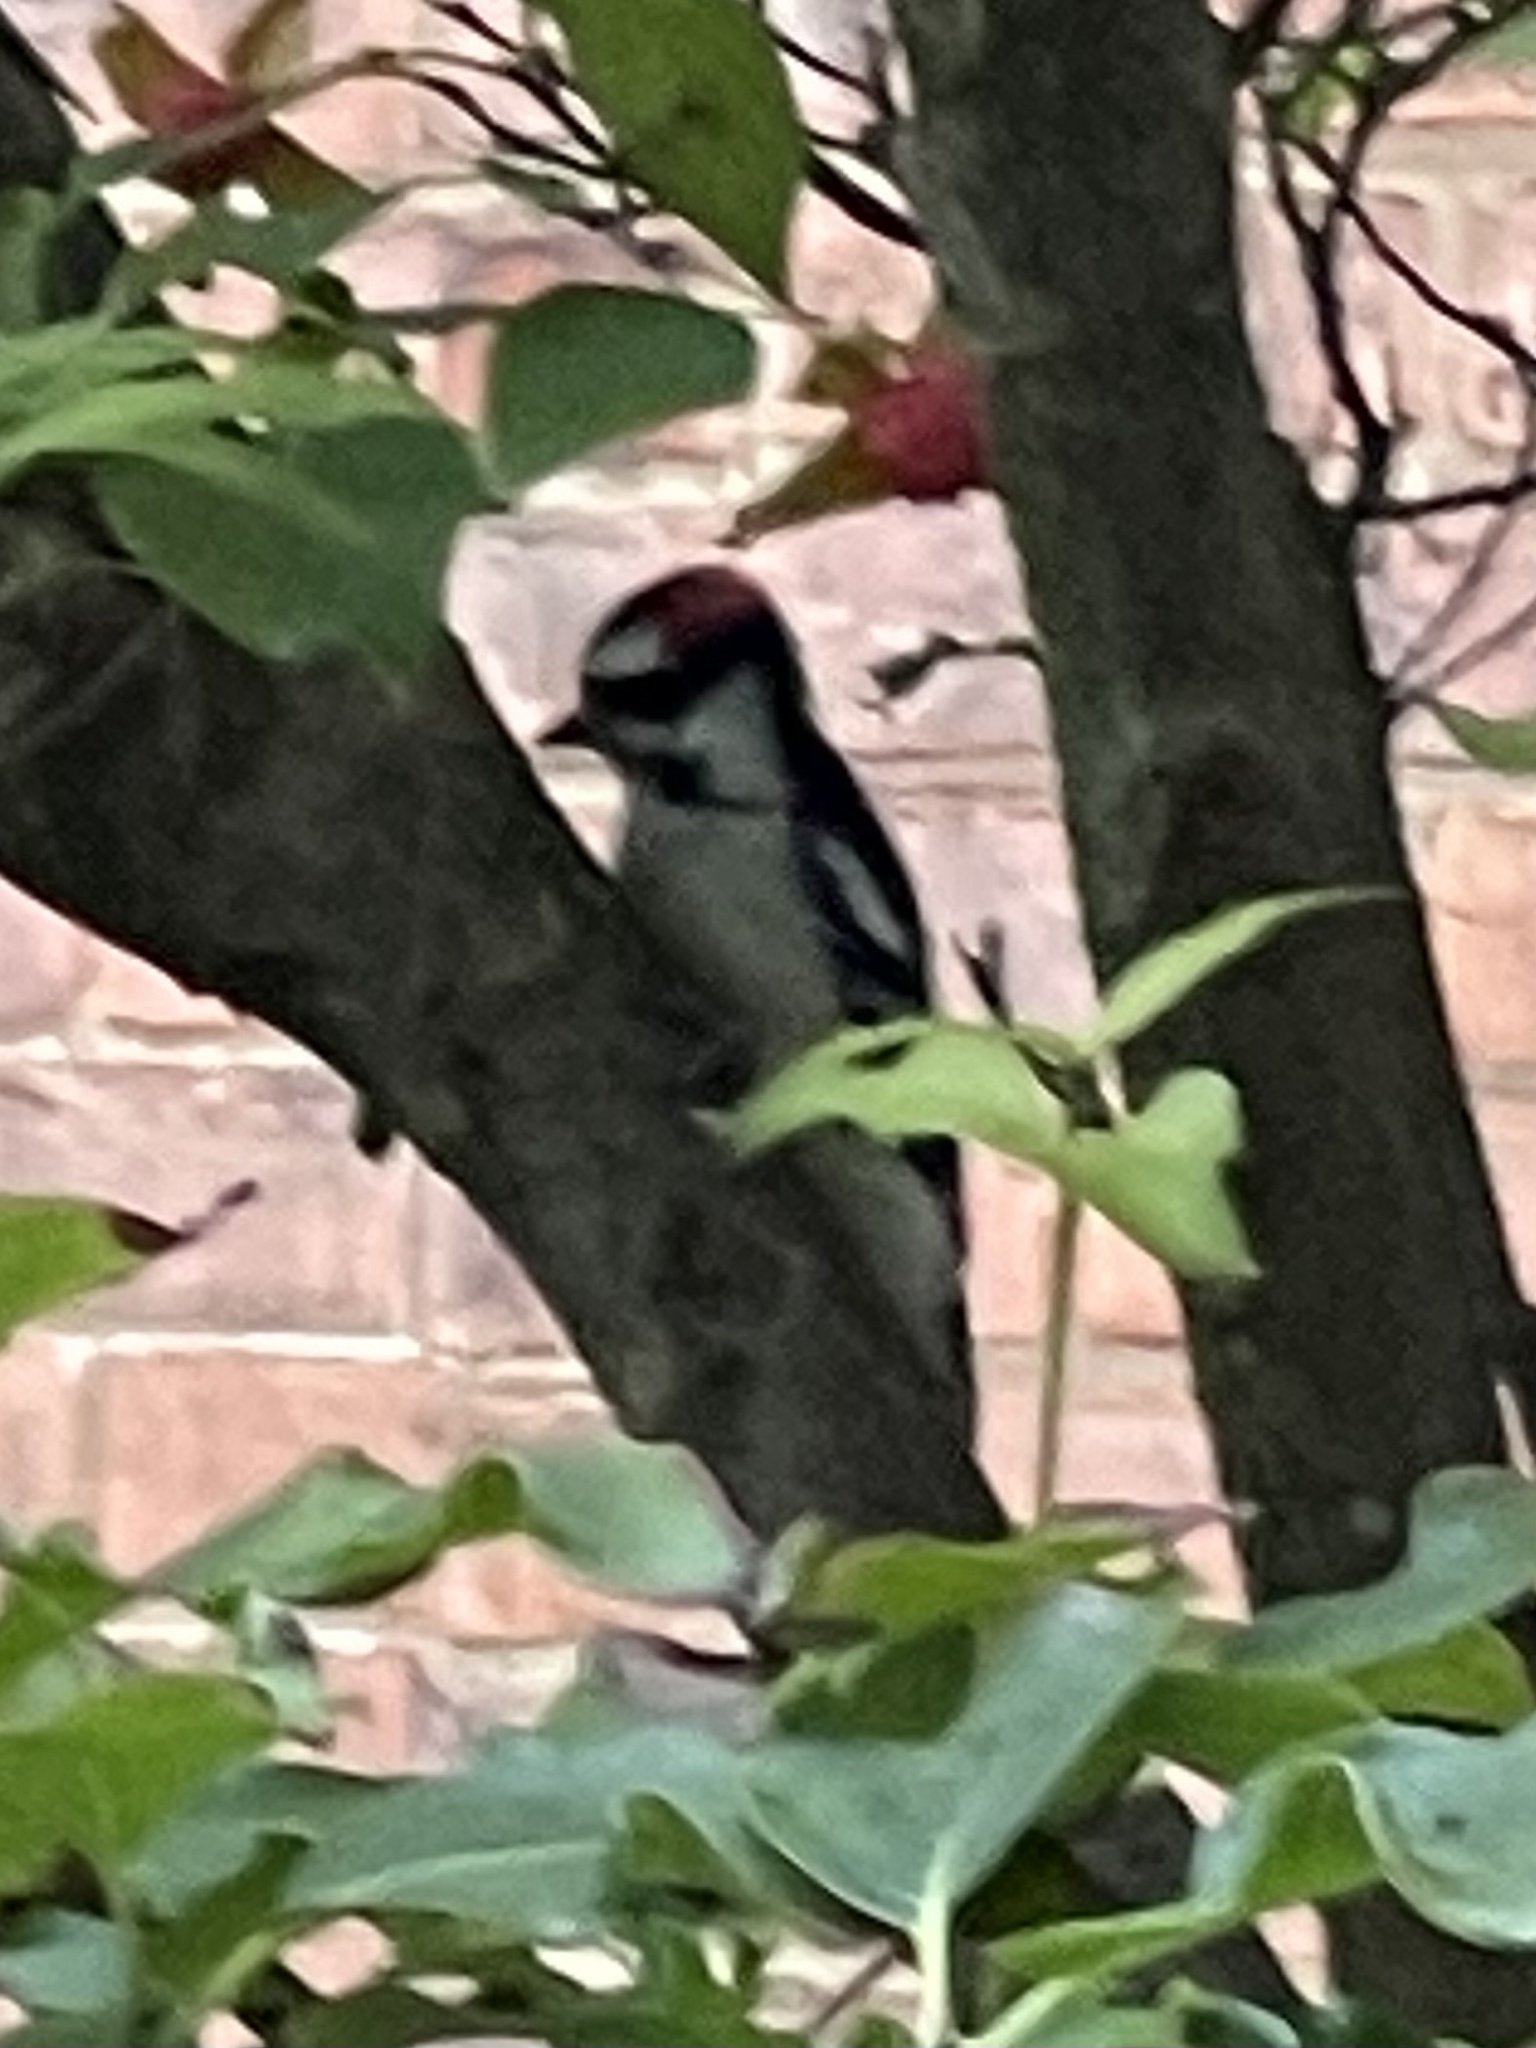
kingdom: Animalia
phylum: Chordata
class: Aves
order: Piciformes
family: Picidae
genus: Dryobates
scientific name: Dryobates pubescens
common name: Downy woodpecker
